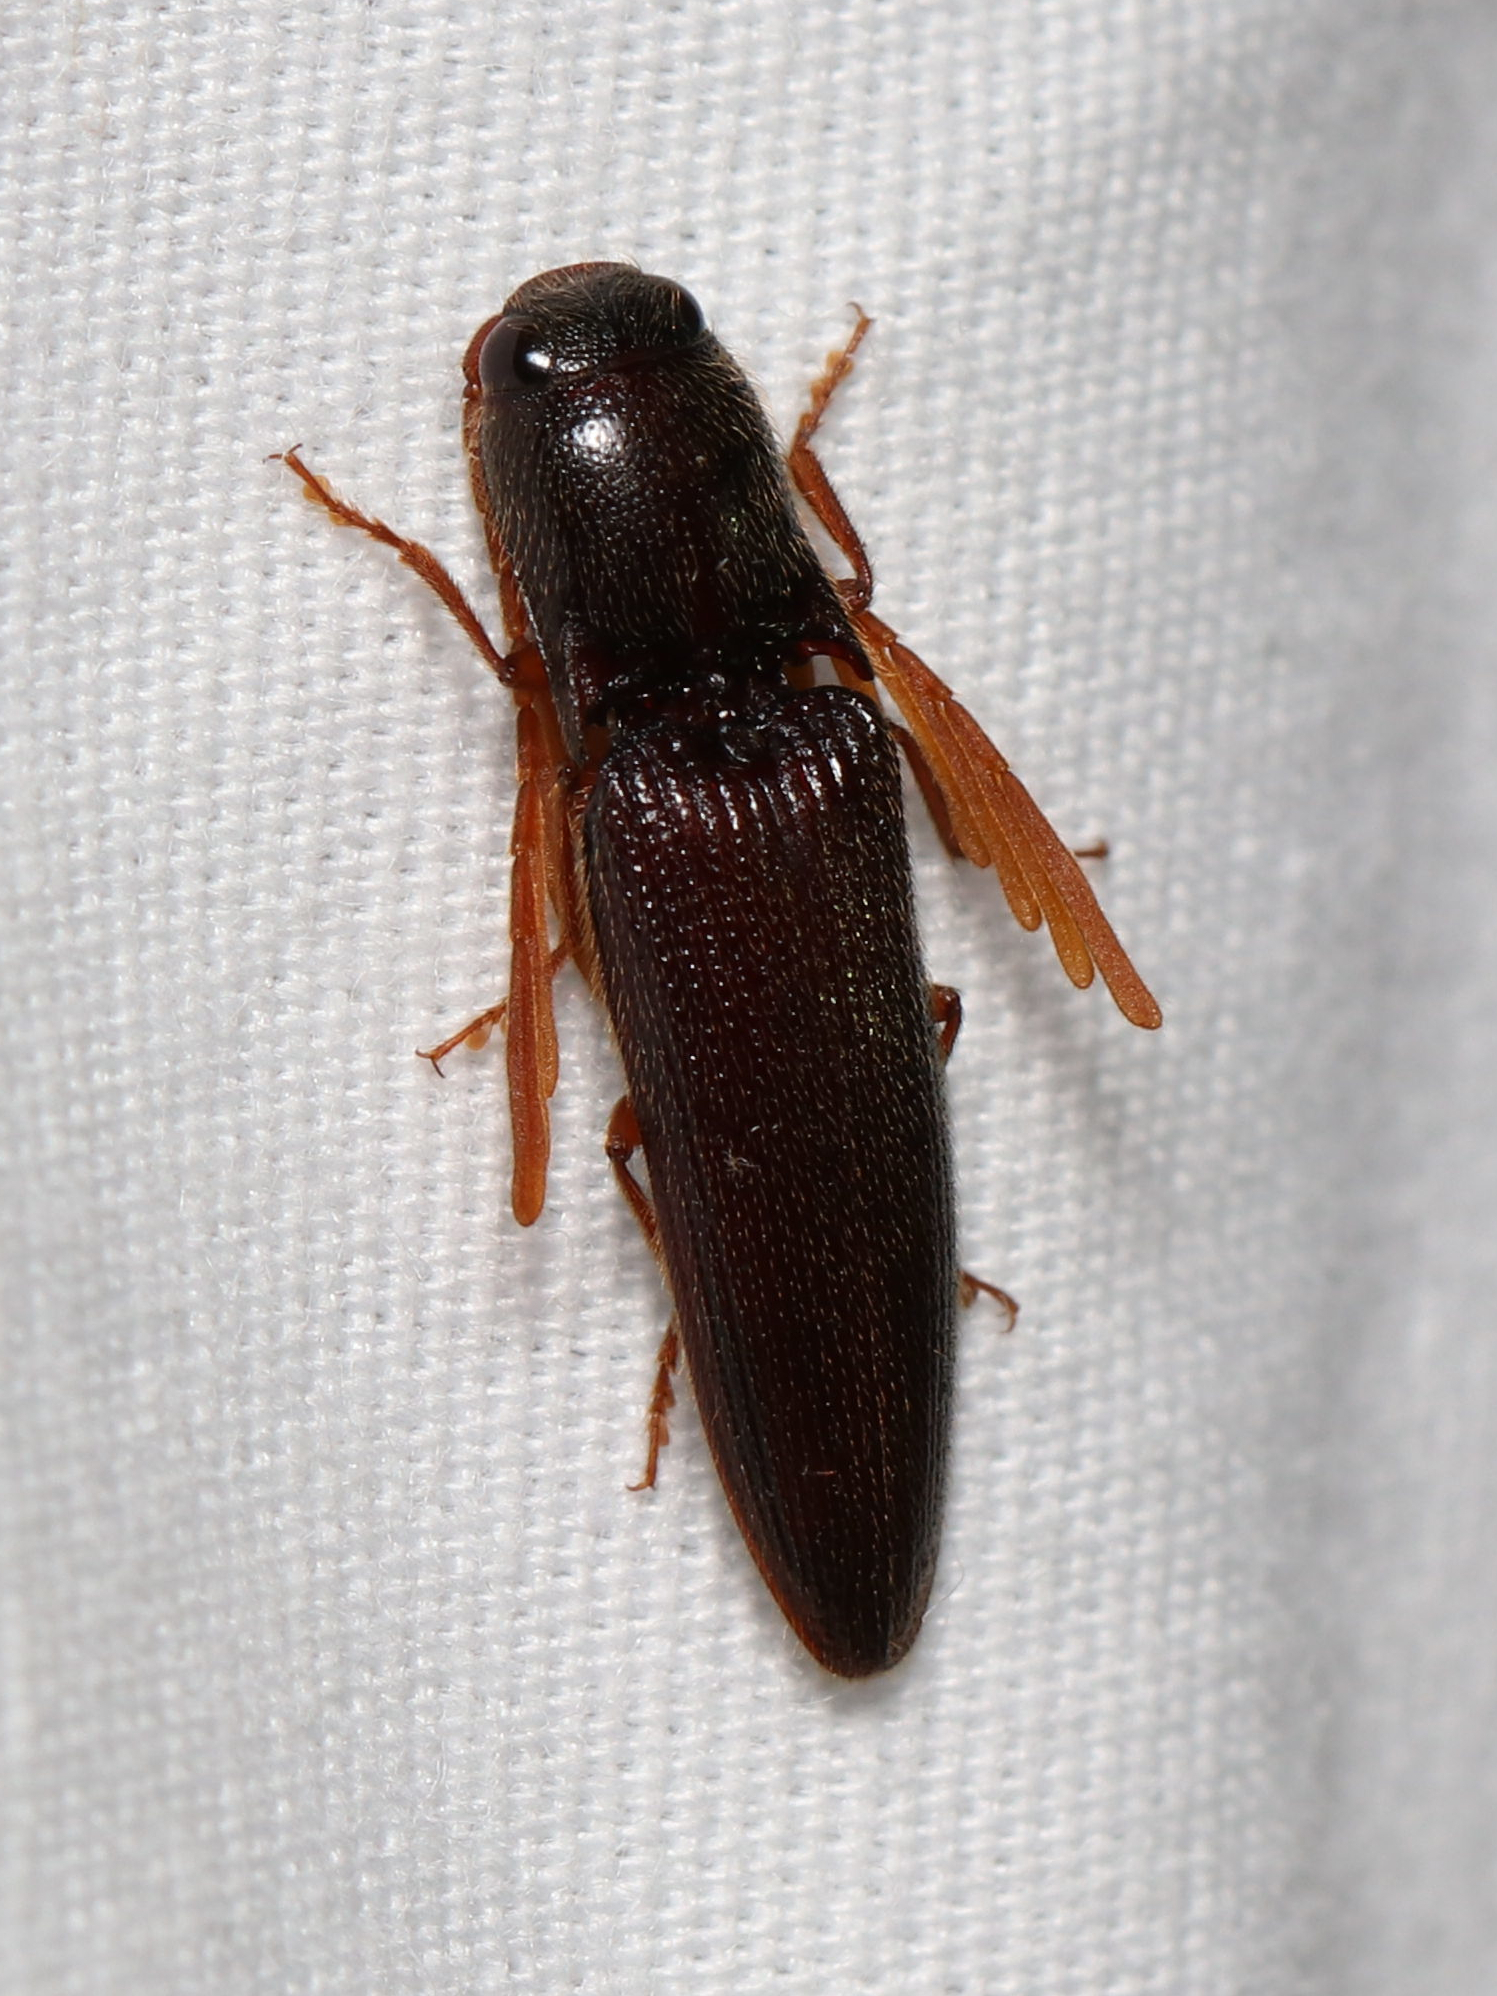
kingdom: Animalia
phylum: Arthropoda
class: Insecta
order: Coleoptera
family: Elateridae
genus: Dicrepidius
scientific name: Dicrepidius palmatus
